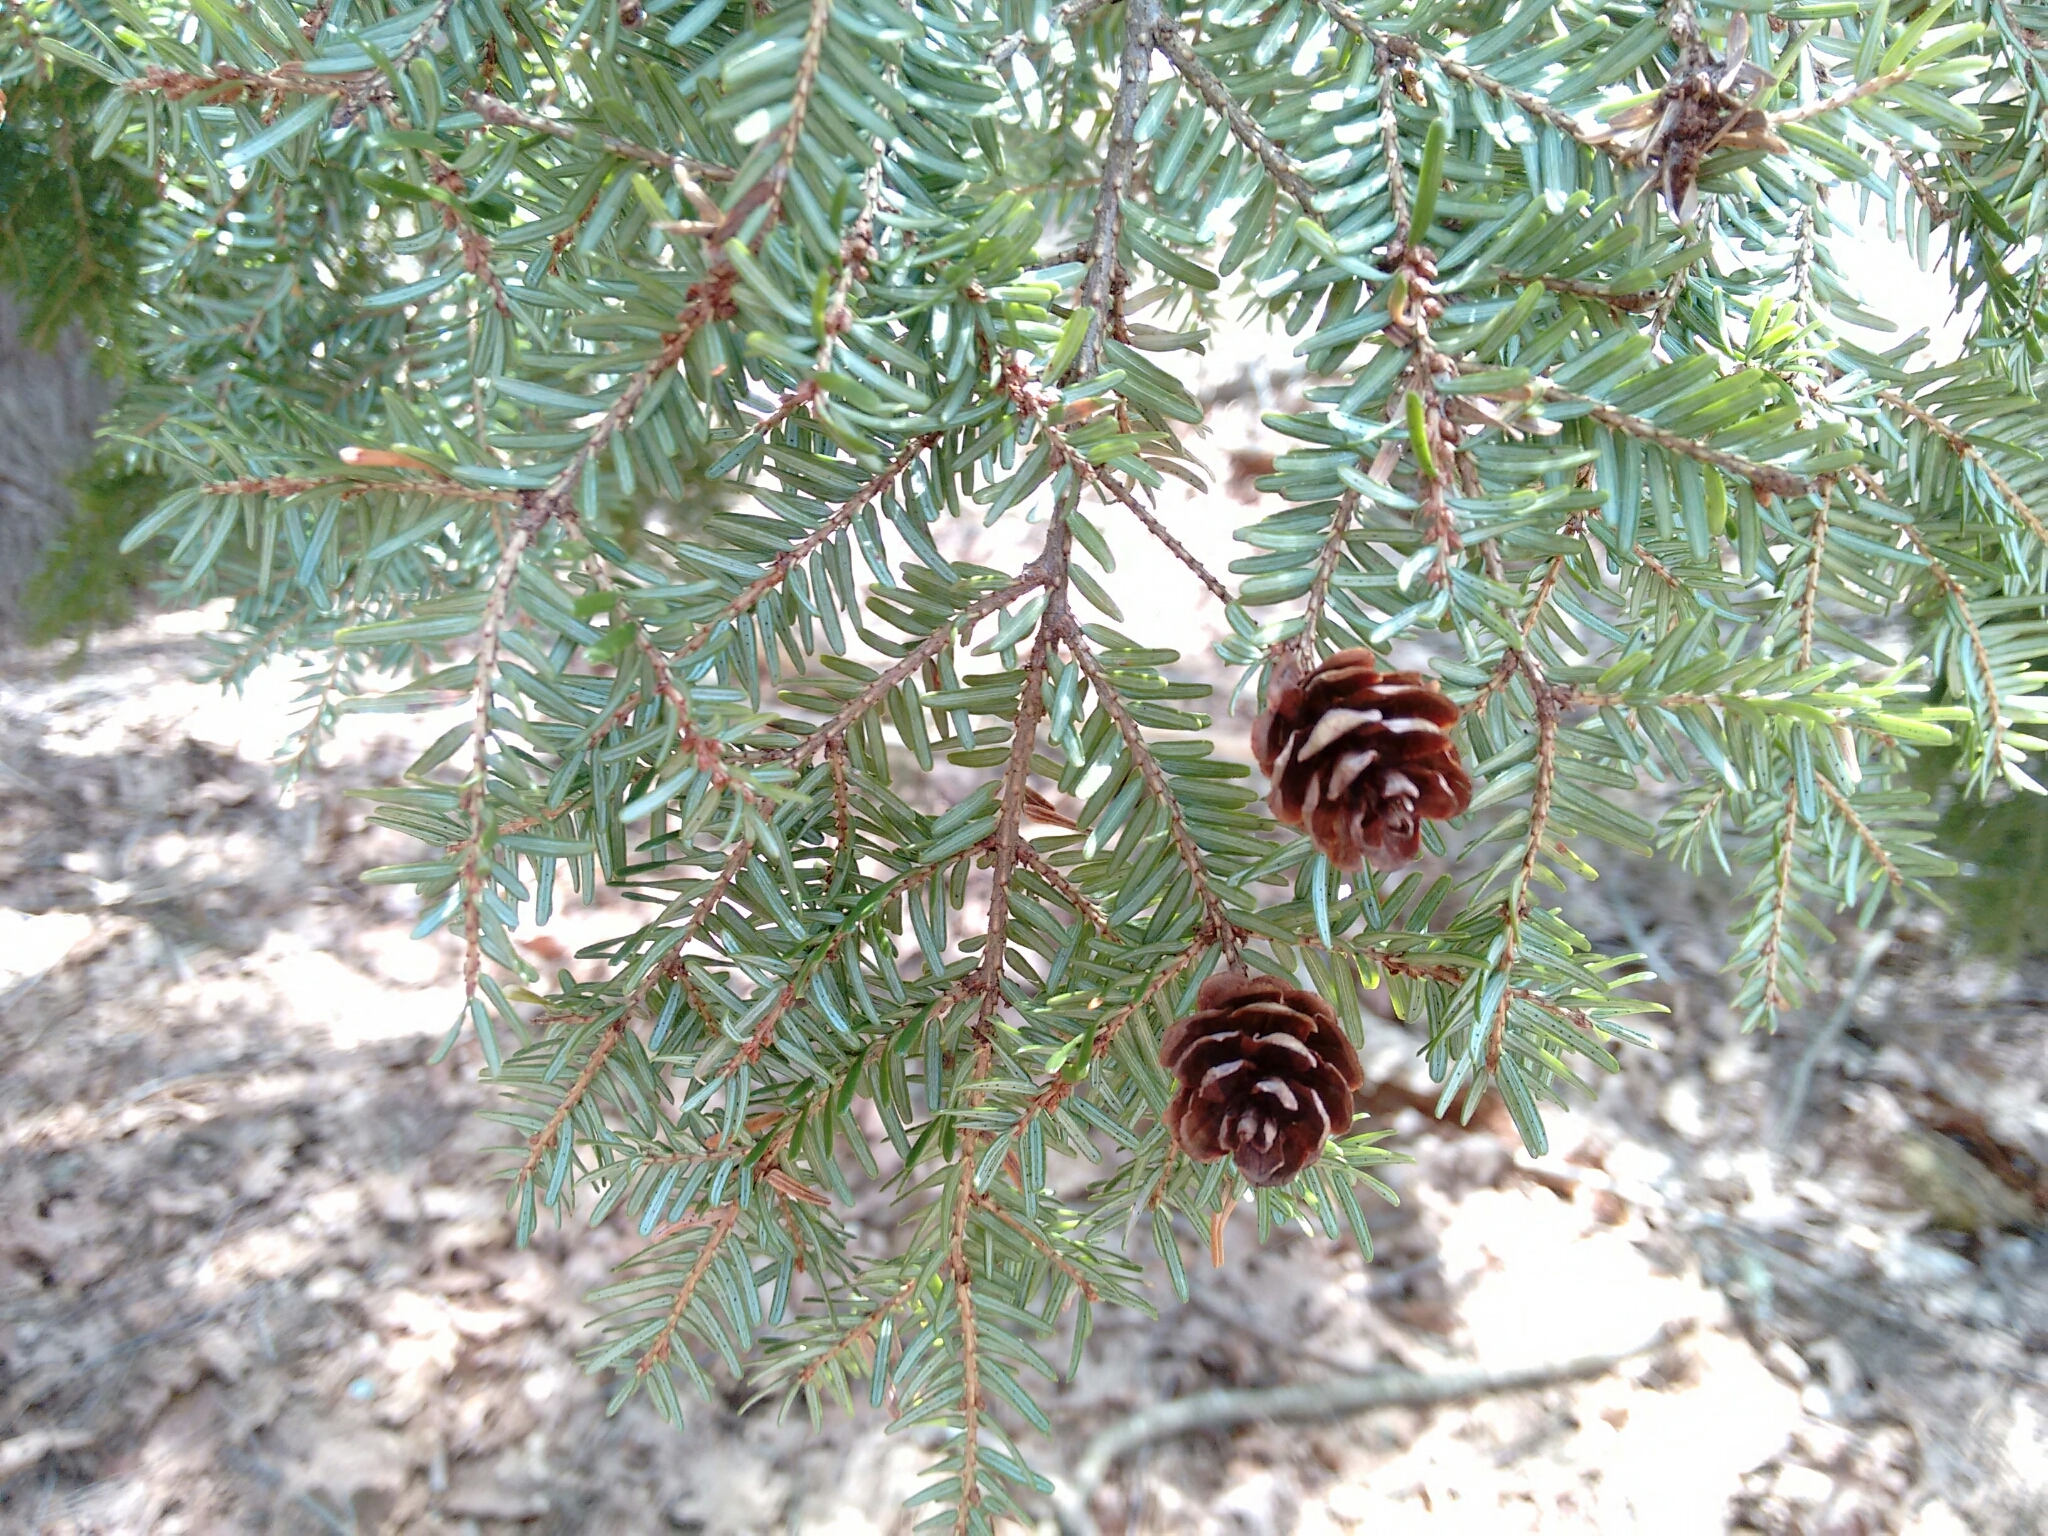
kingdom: Plantae
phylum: Tracheophyta
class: Pinopsida
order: Pinales
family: Pinaceae
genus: Tsuga
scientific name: Tsuga canadensis
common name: Eastern hemlock
